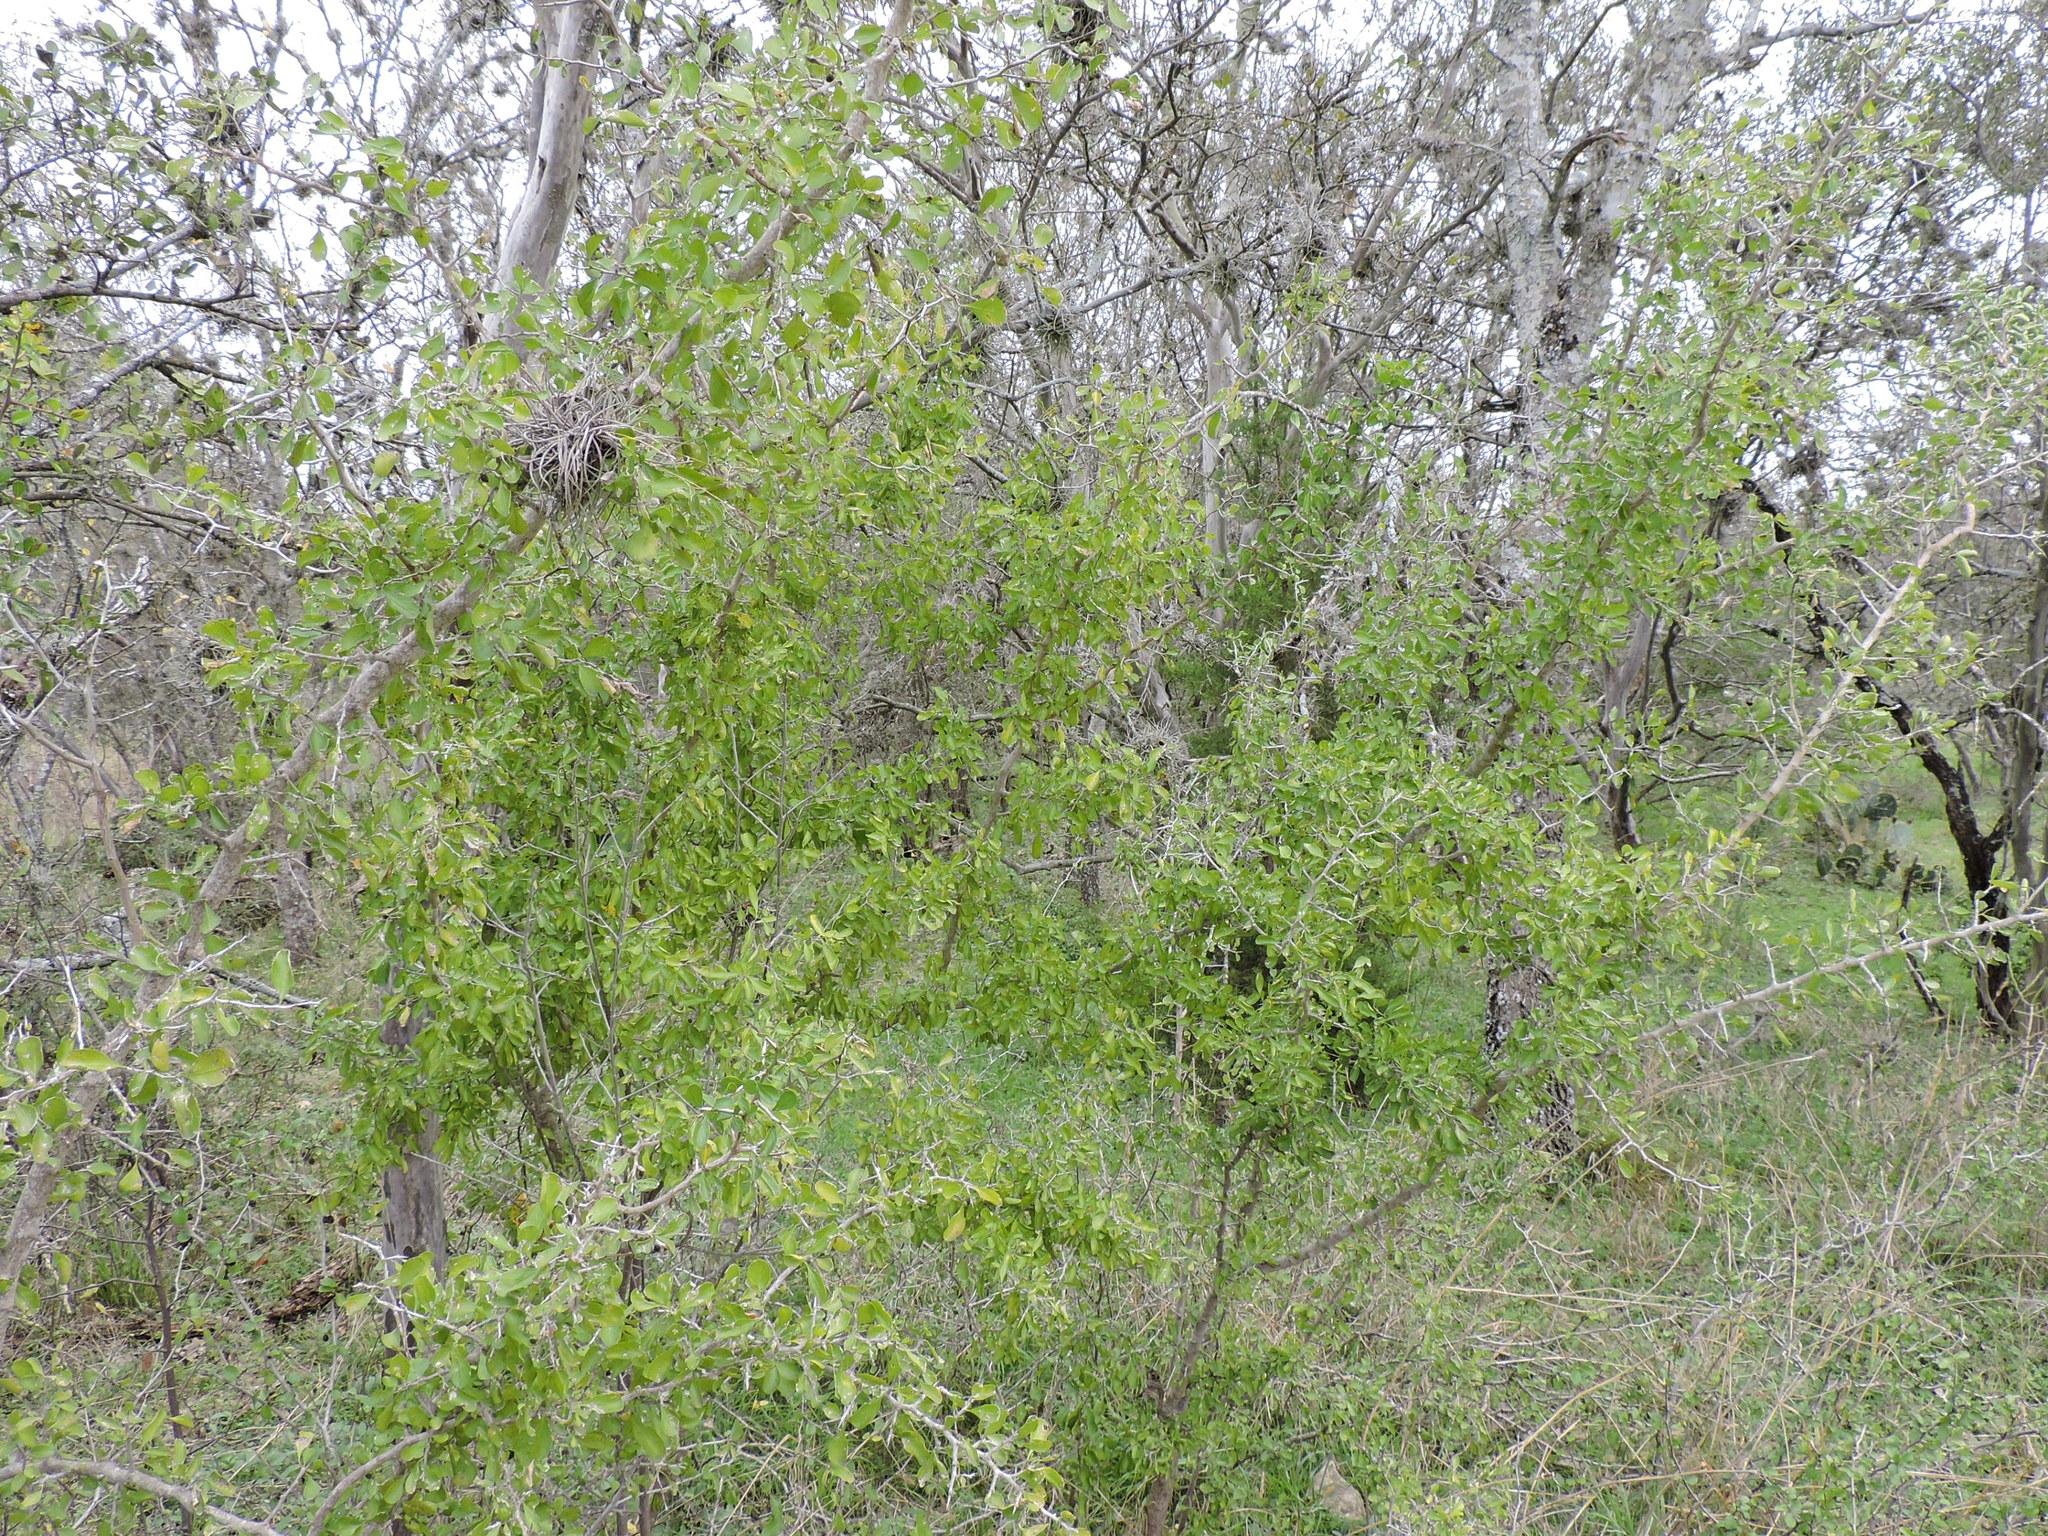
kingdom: Plantae
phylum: Tracheophyta
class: Magnoliopsida
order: Rosales
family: Rhamnaceae
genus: Condalia
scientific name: Condalia hookeri
